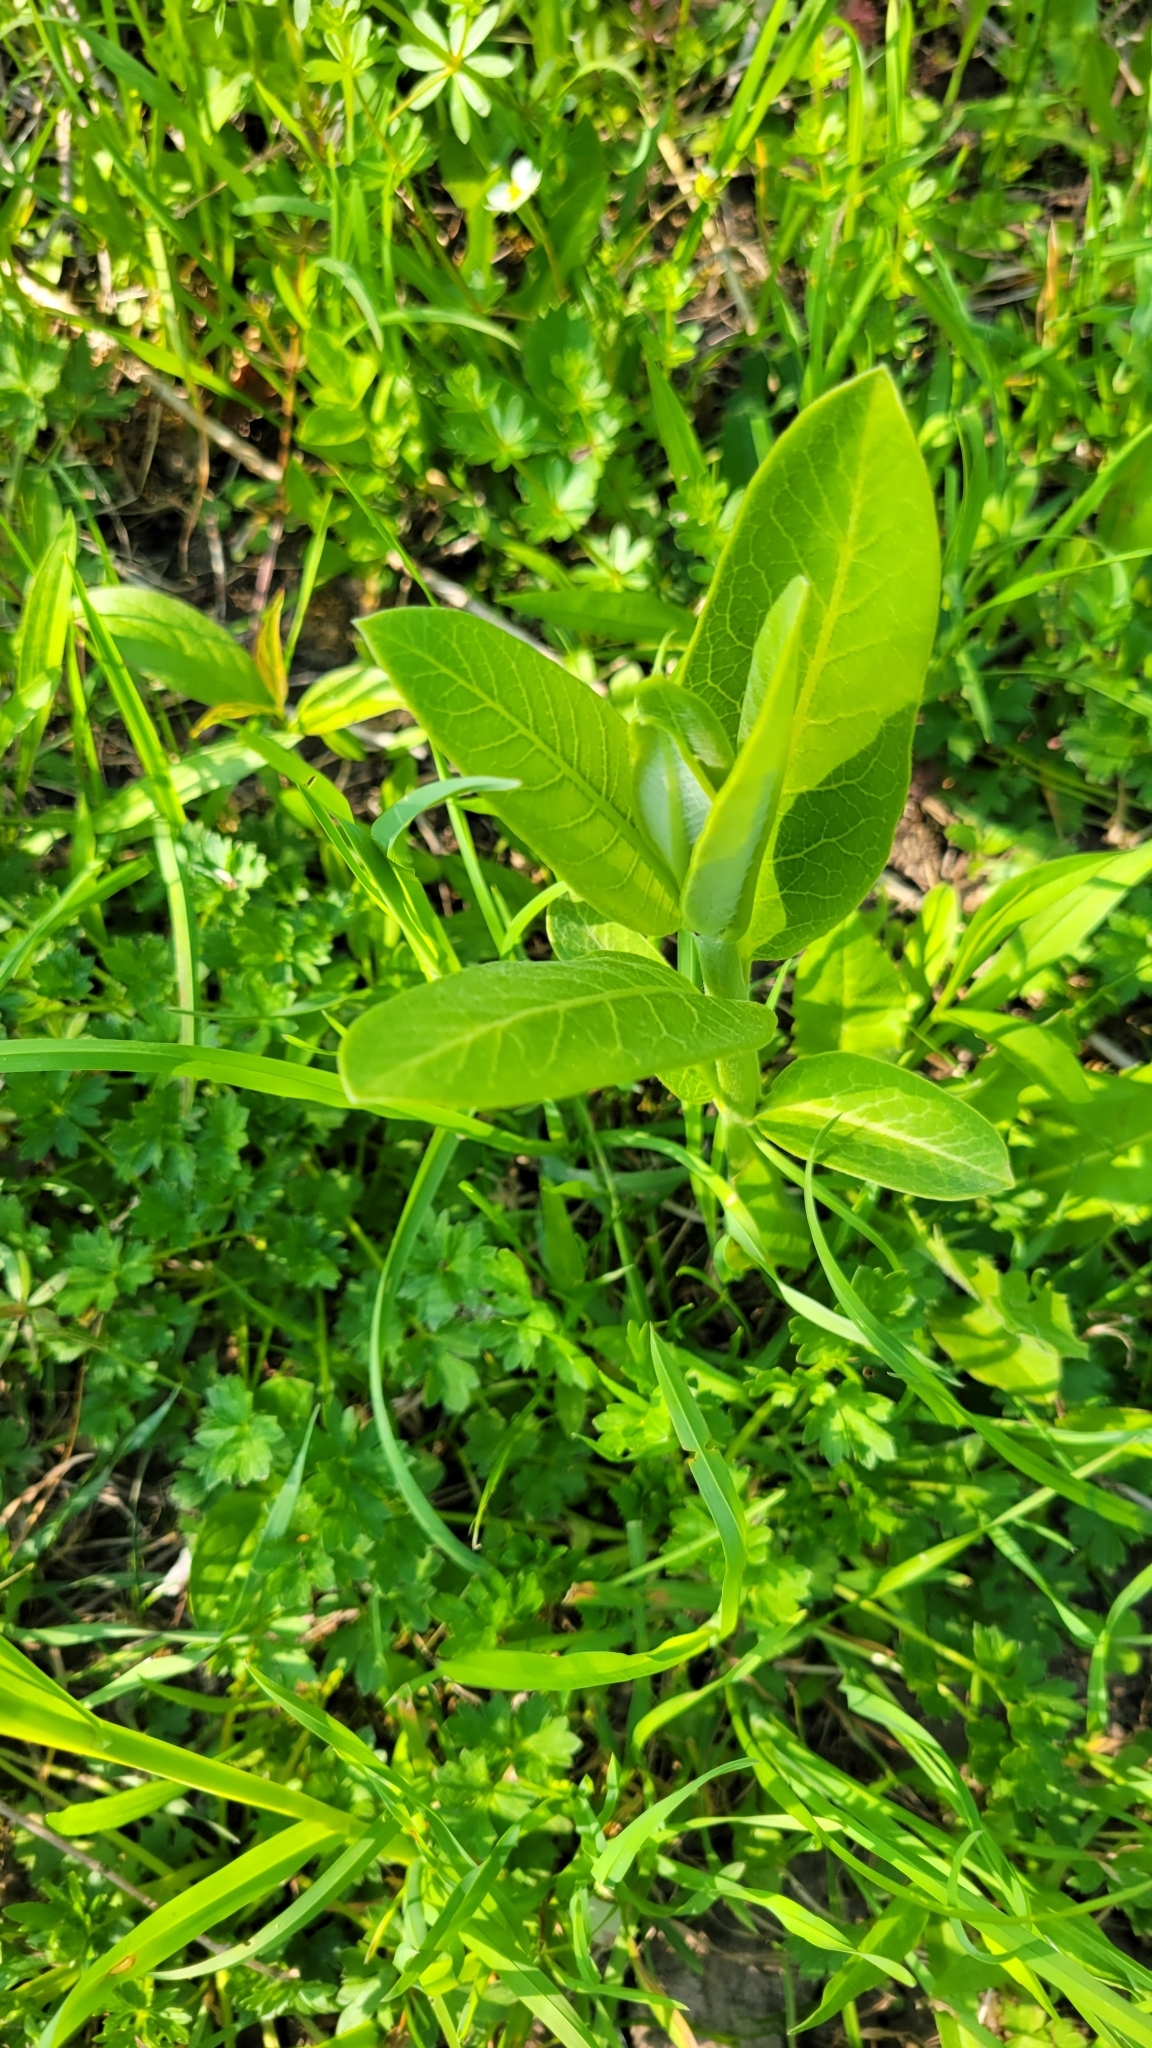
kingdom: Plantae
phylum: Tracheophyta
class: Magnoliopsida
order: Gentianales
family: Apocynaceae
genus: Asclepias
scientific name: Asclepias syriaca
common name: Common milkweed
